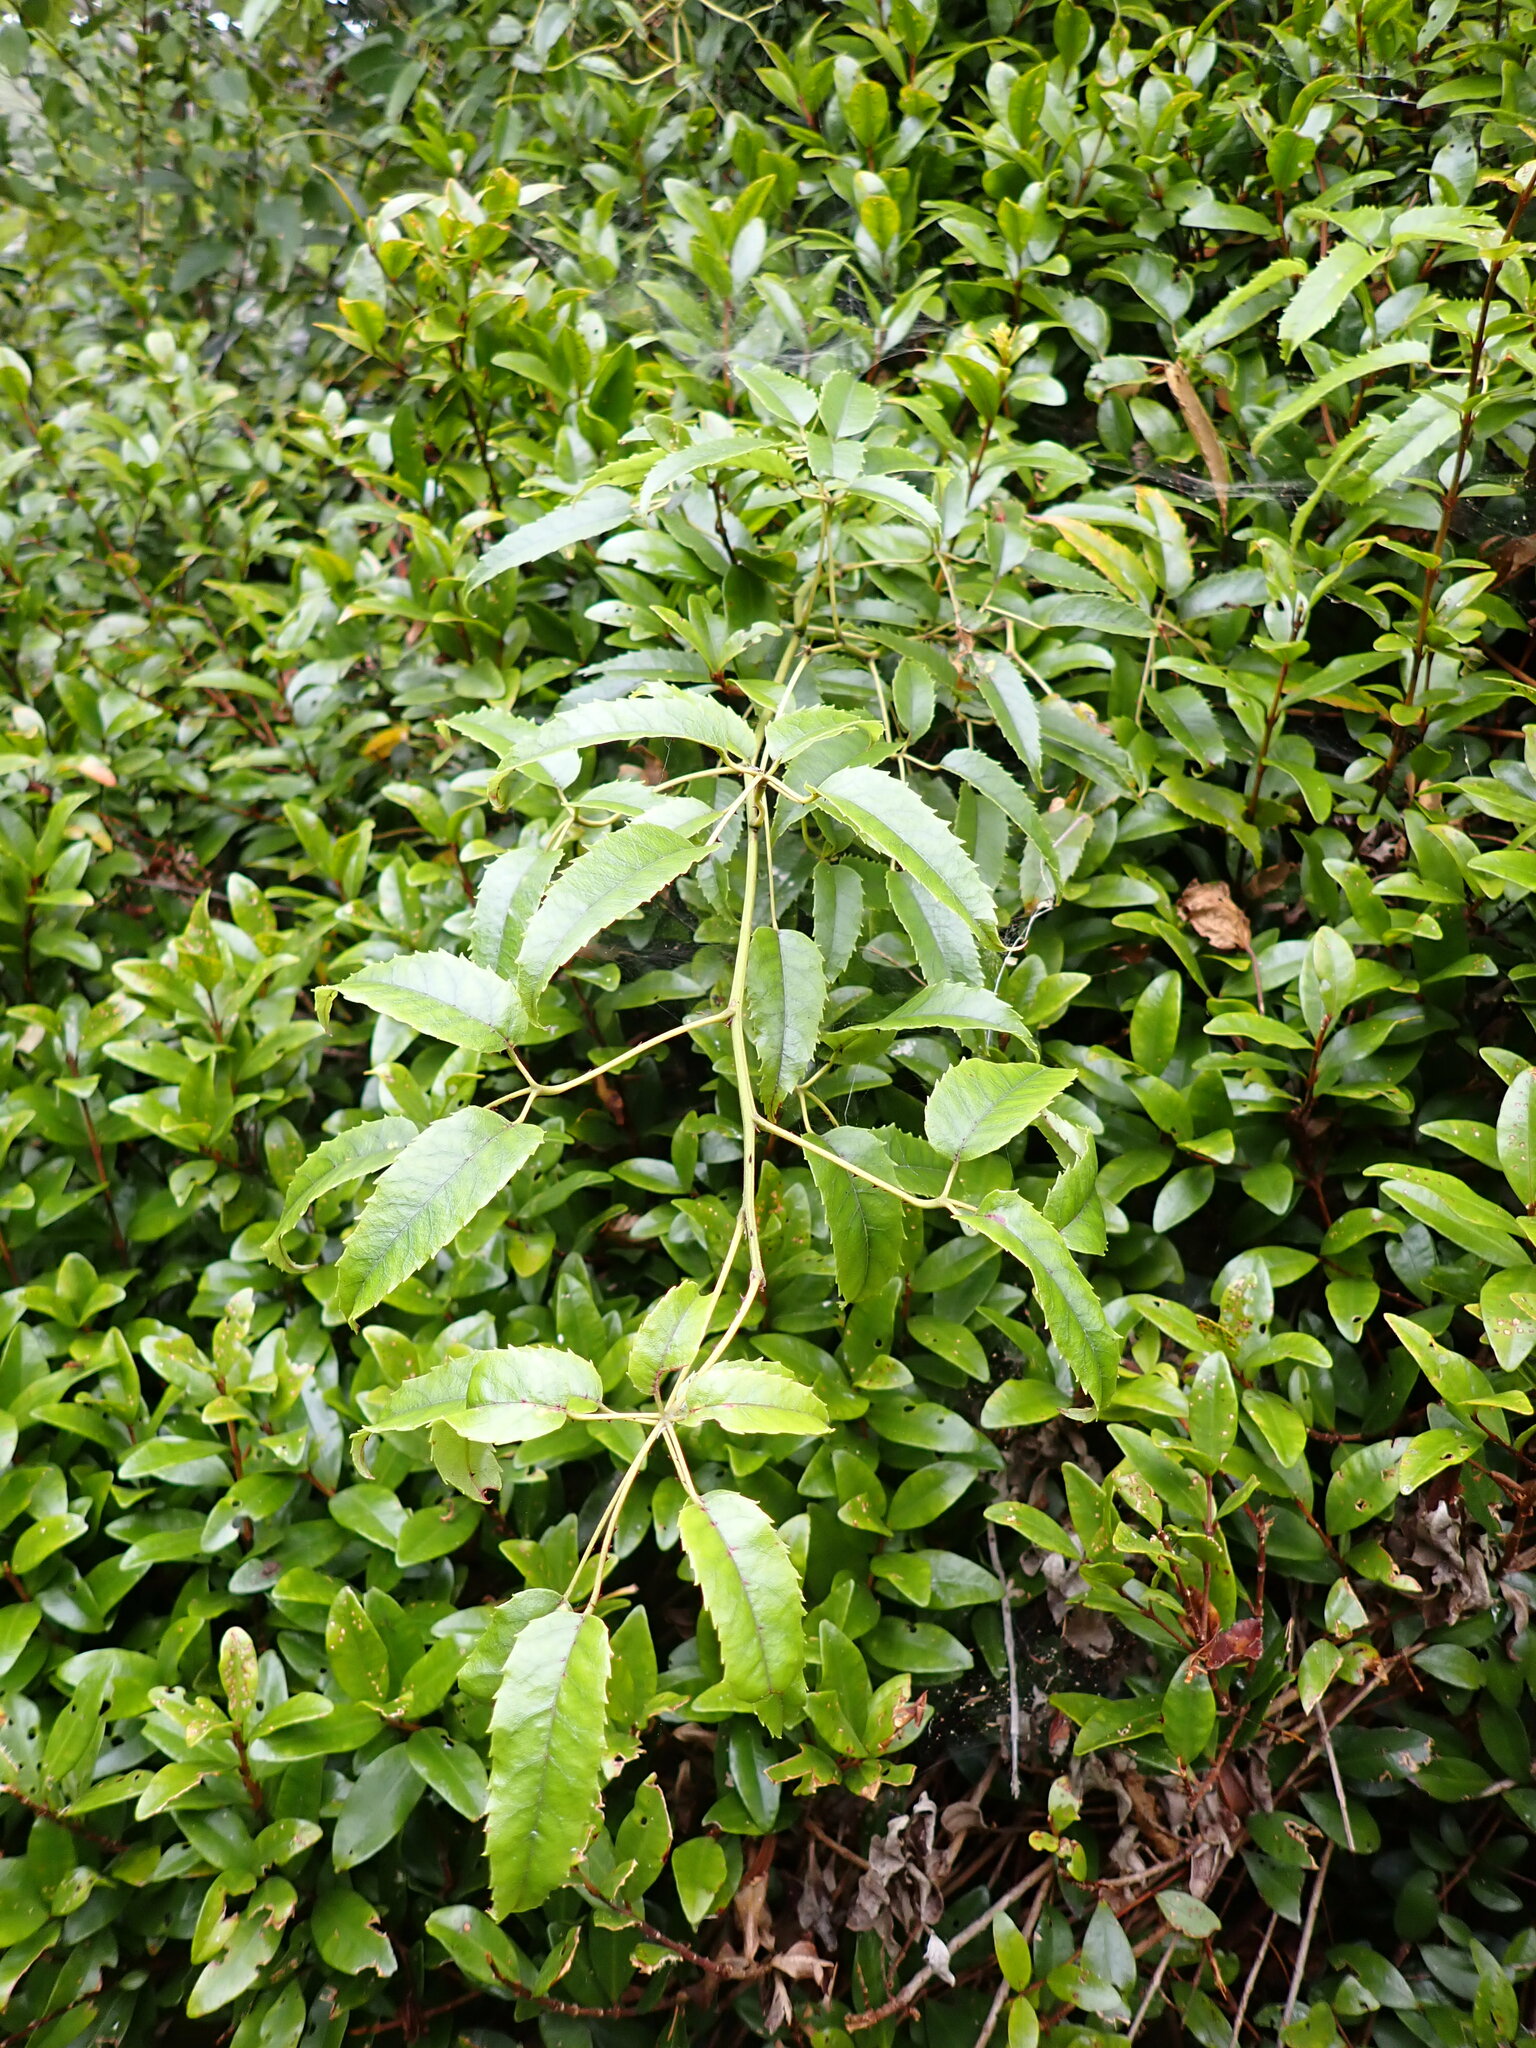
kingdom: Plantae
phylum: Tracheophyta
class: Magnoliopsida
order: Rosales
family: Rosaceae
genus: Rubus
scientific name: Rubus cissoides
